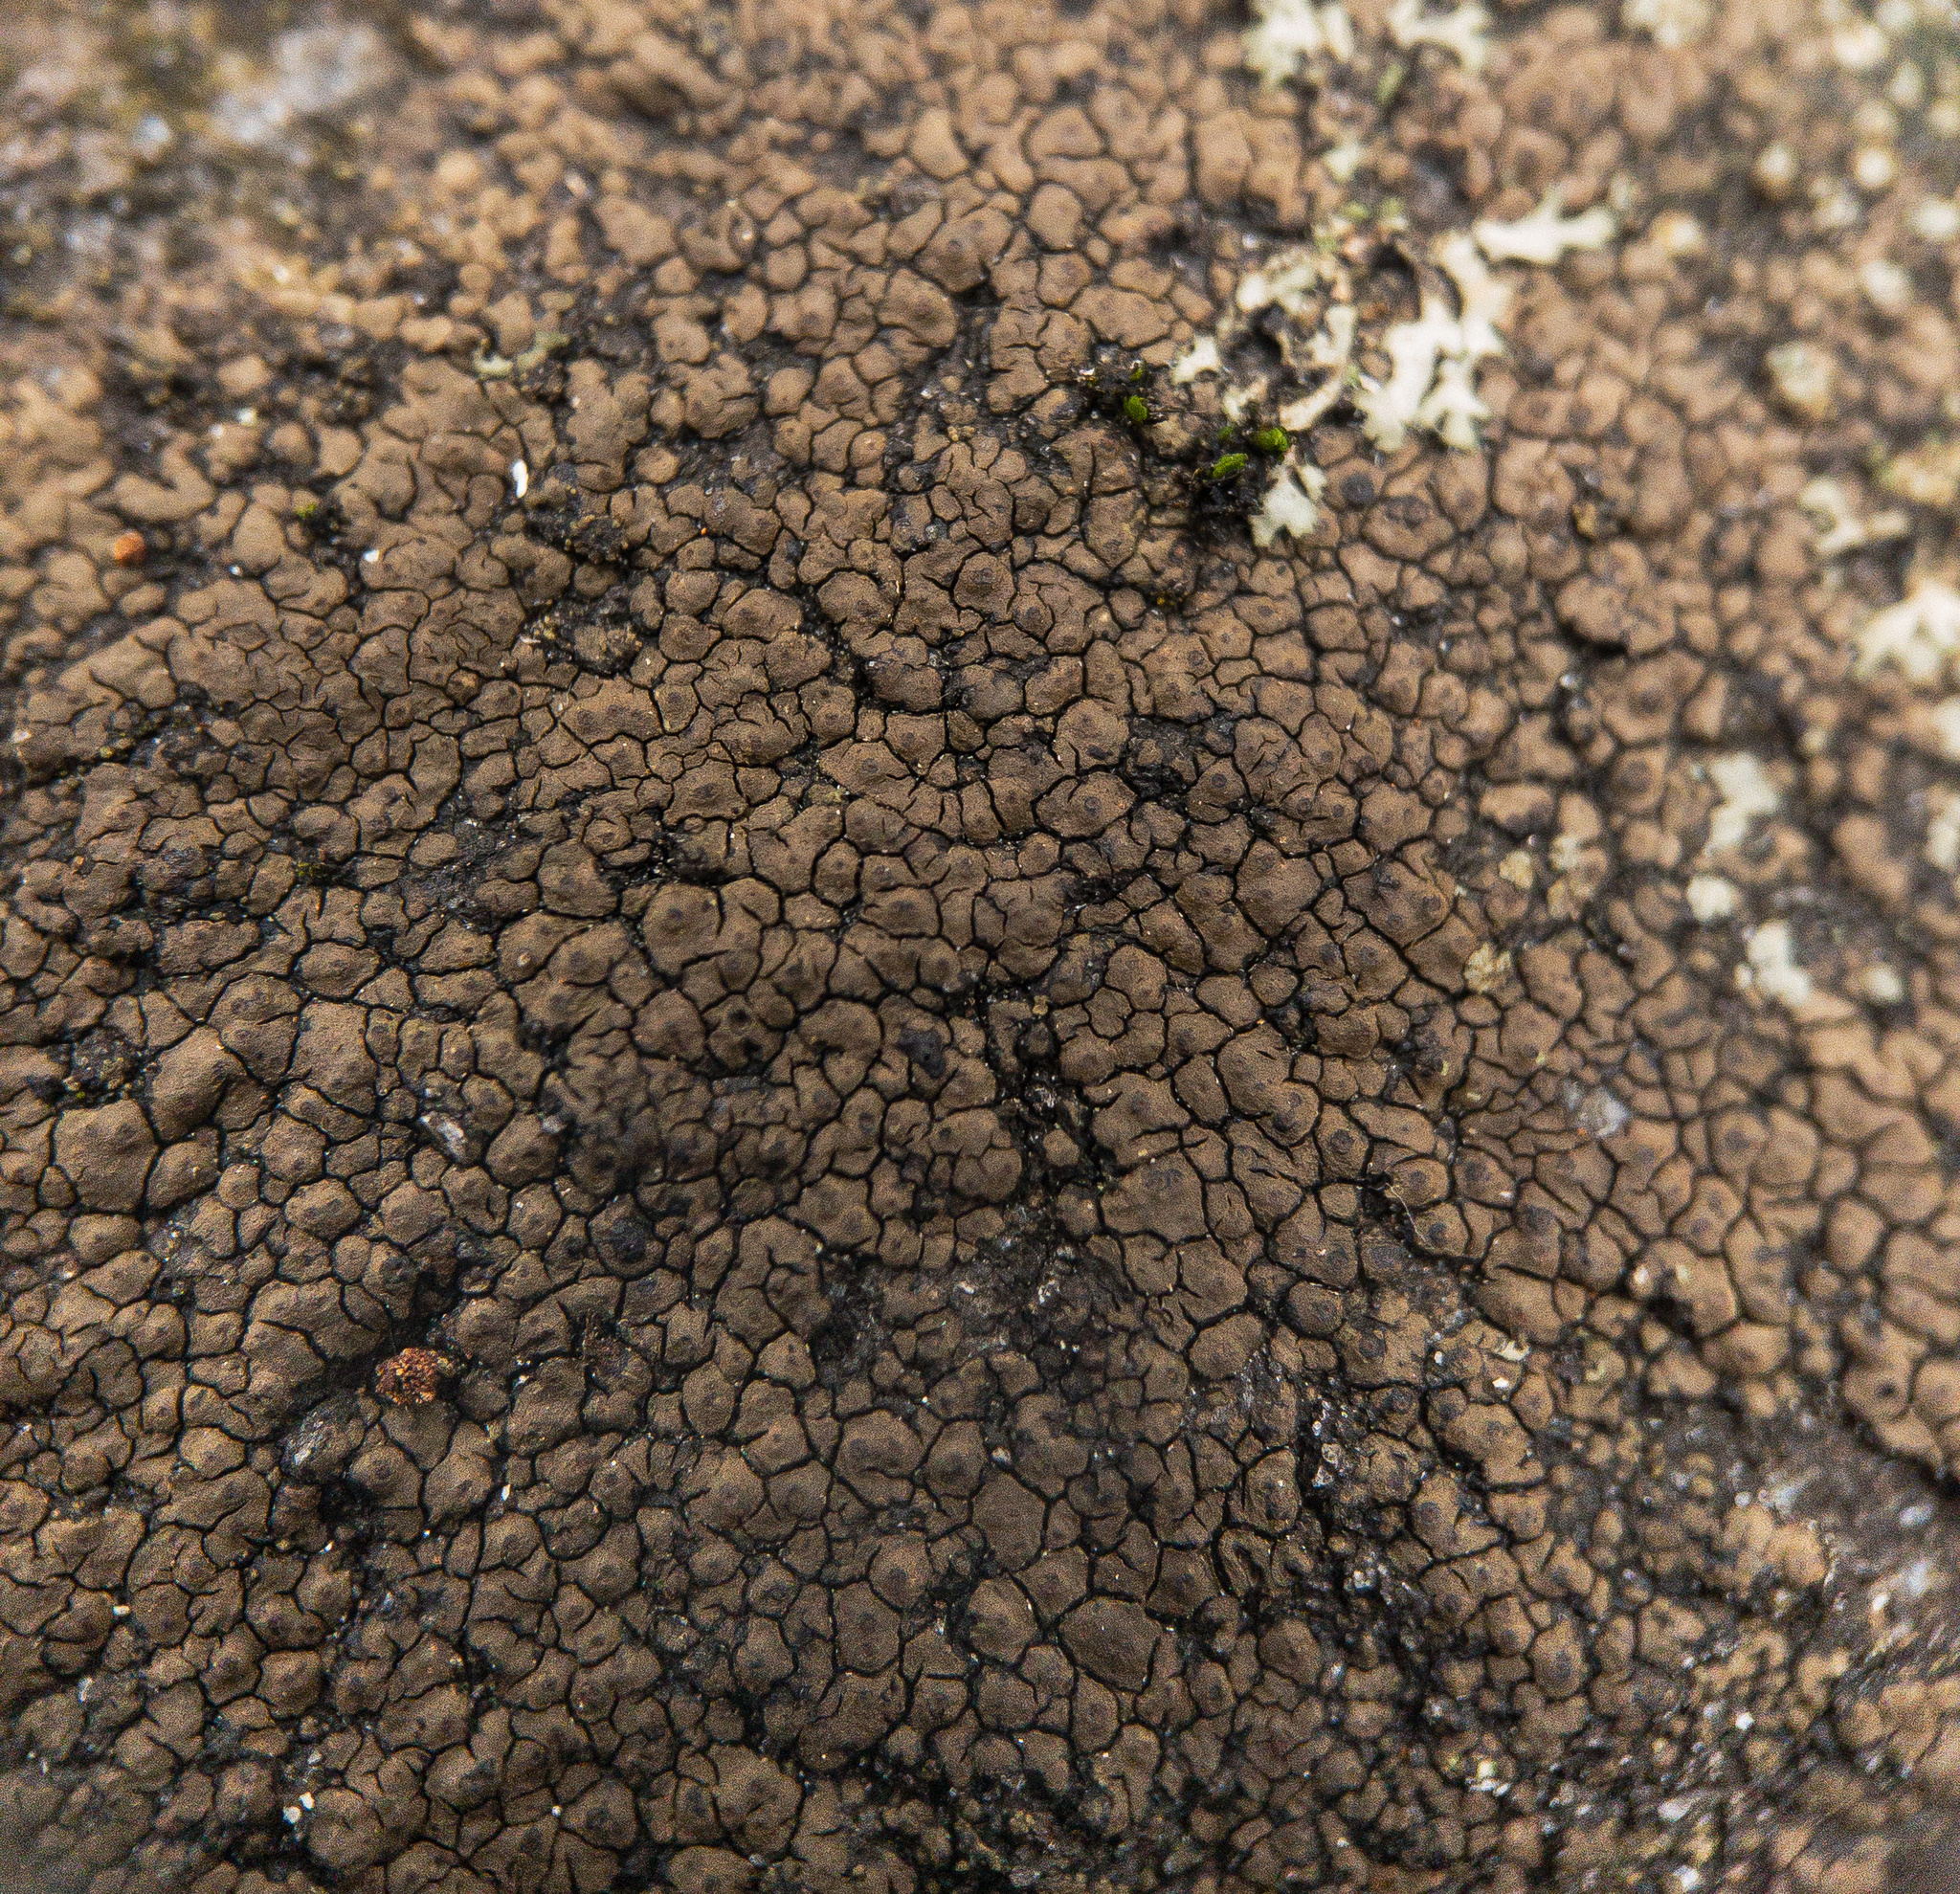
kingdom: Fungi
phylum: Ascomycota
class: Lecanoromycetes
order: Acarosporales
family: Acarosporaceae
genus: Acarospora
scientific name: Acarospora fuscata
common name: Brown cobblestone lichen
